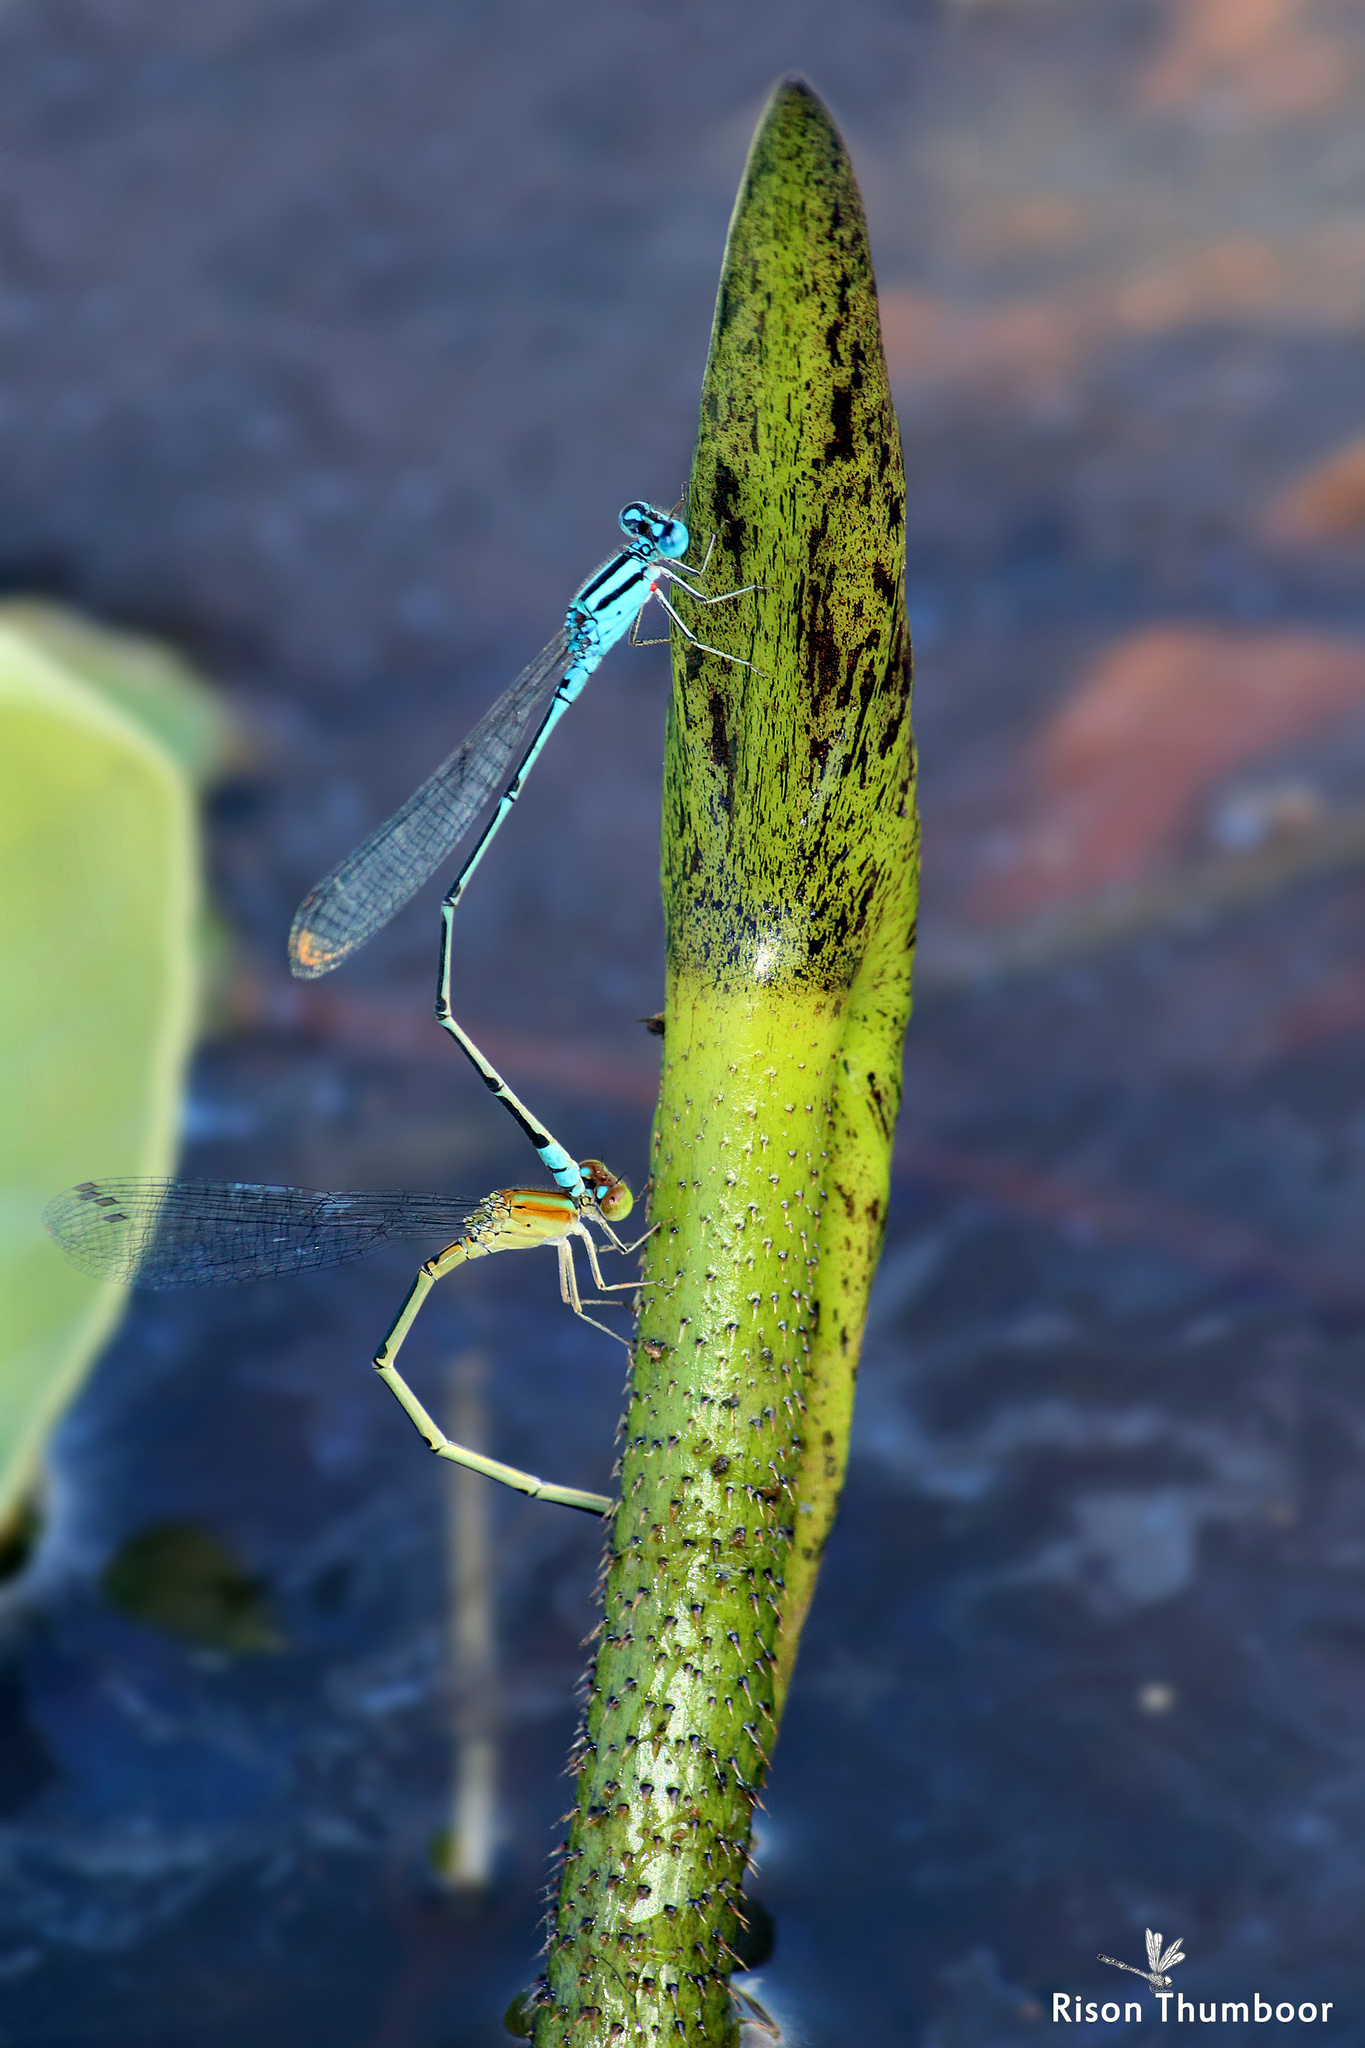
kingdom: Animalia
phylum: Arthropoda
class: Insecta
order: Odonata
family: Coenagrionidae
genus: Pseudagrion
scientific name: Pseudagrion microcephalum
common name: Blue riverdamsel
